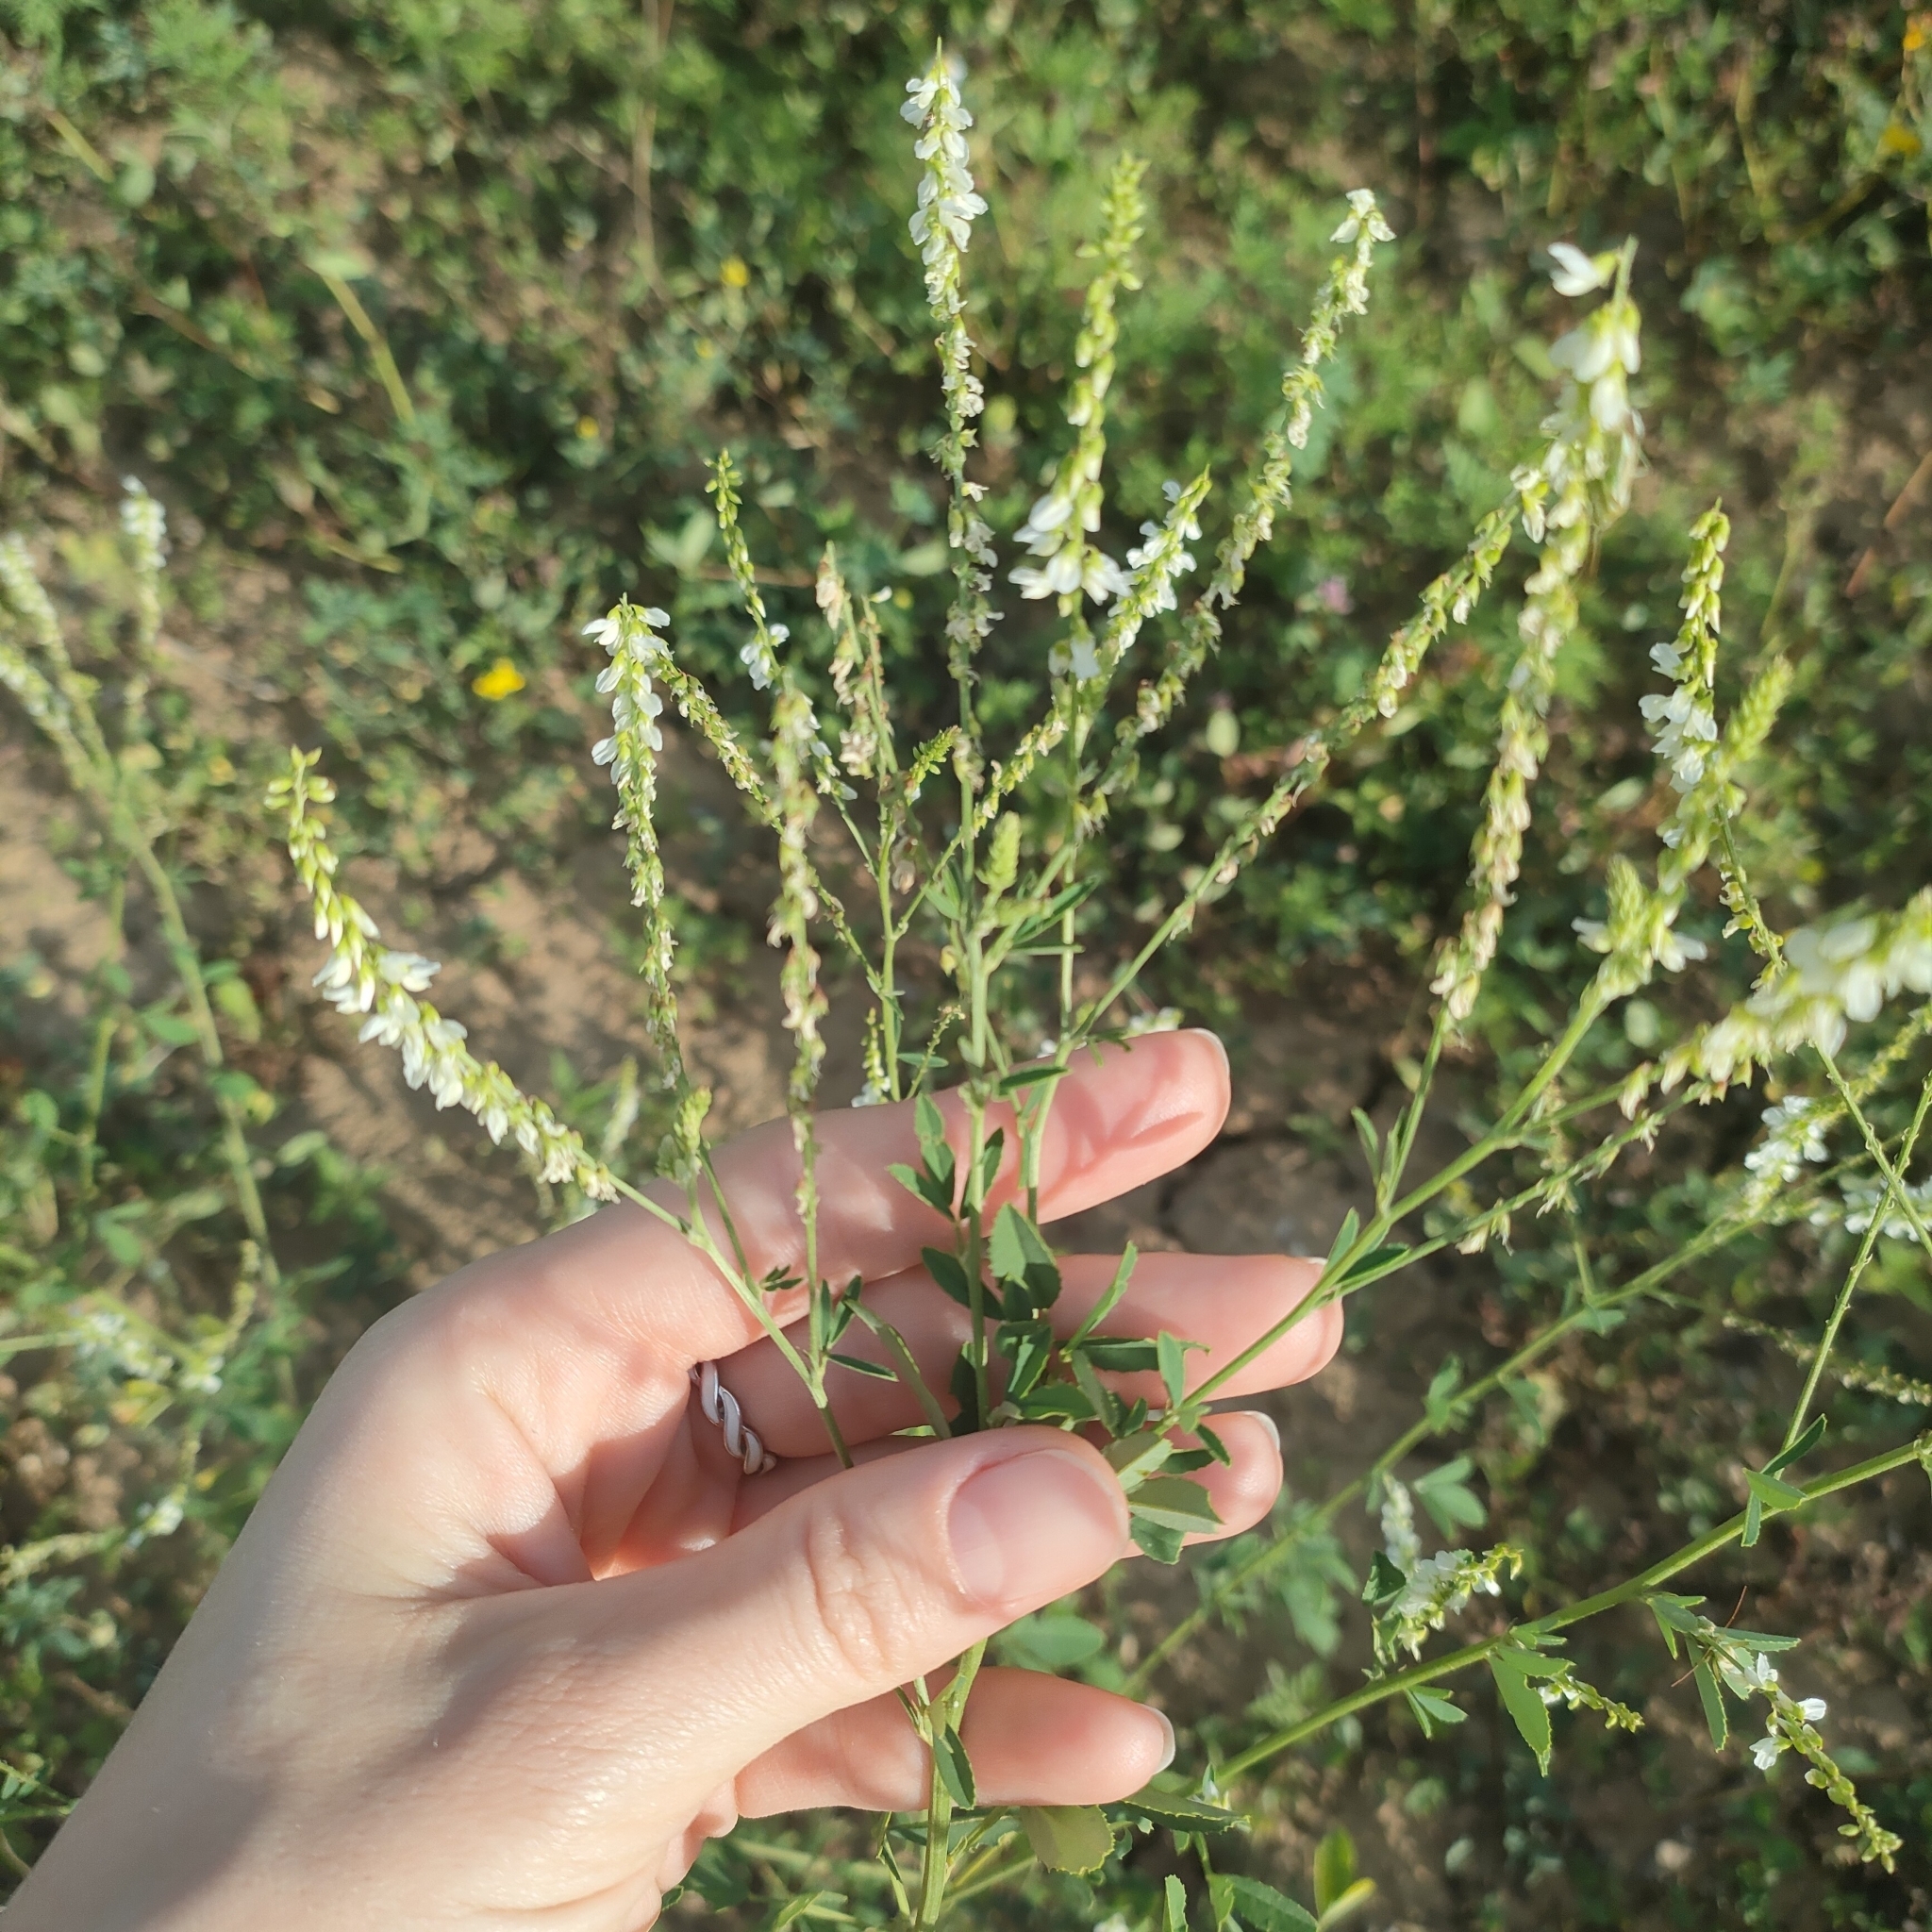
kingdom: Plantae
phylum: Tracheophyta
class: Magnoliopsida
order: Fabales
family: Fabaceae
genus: Melilotus
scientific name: Melilotus albus
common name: White melilot
